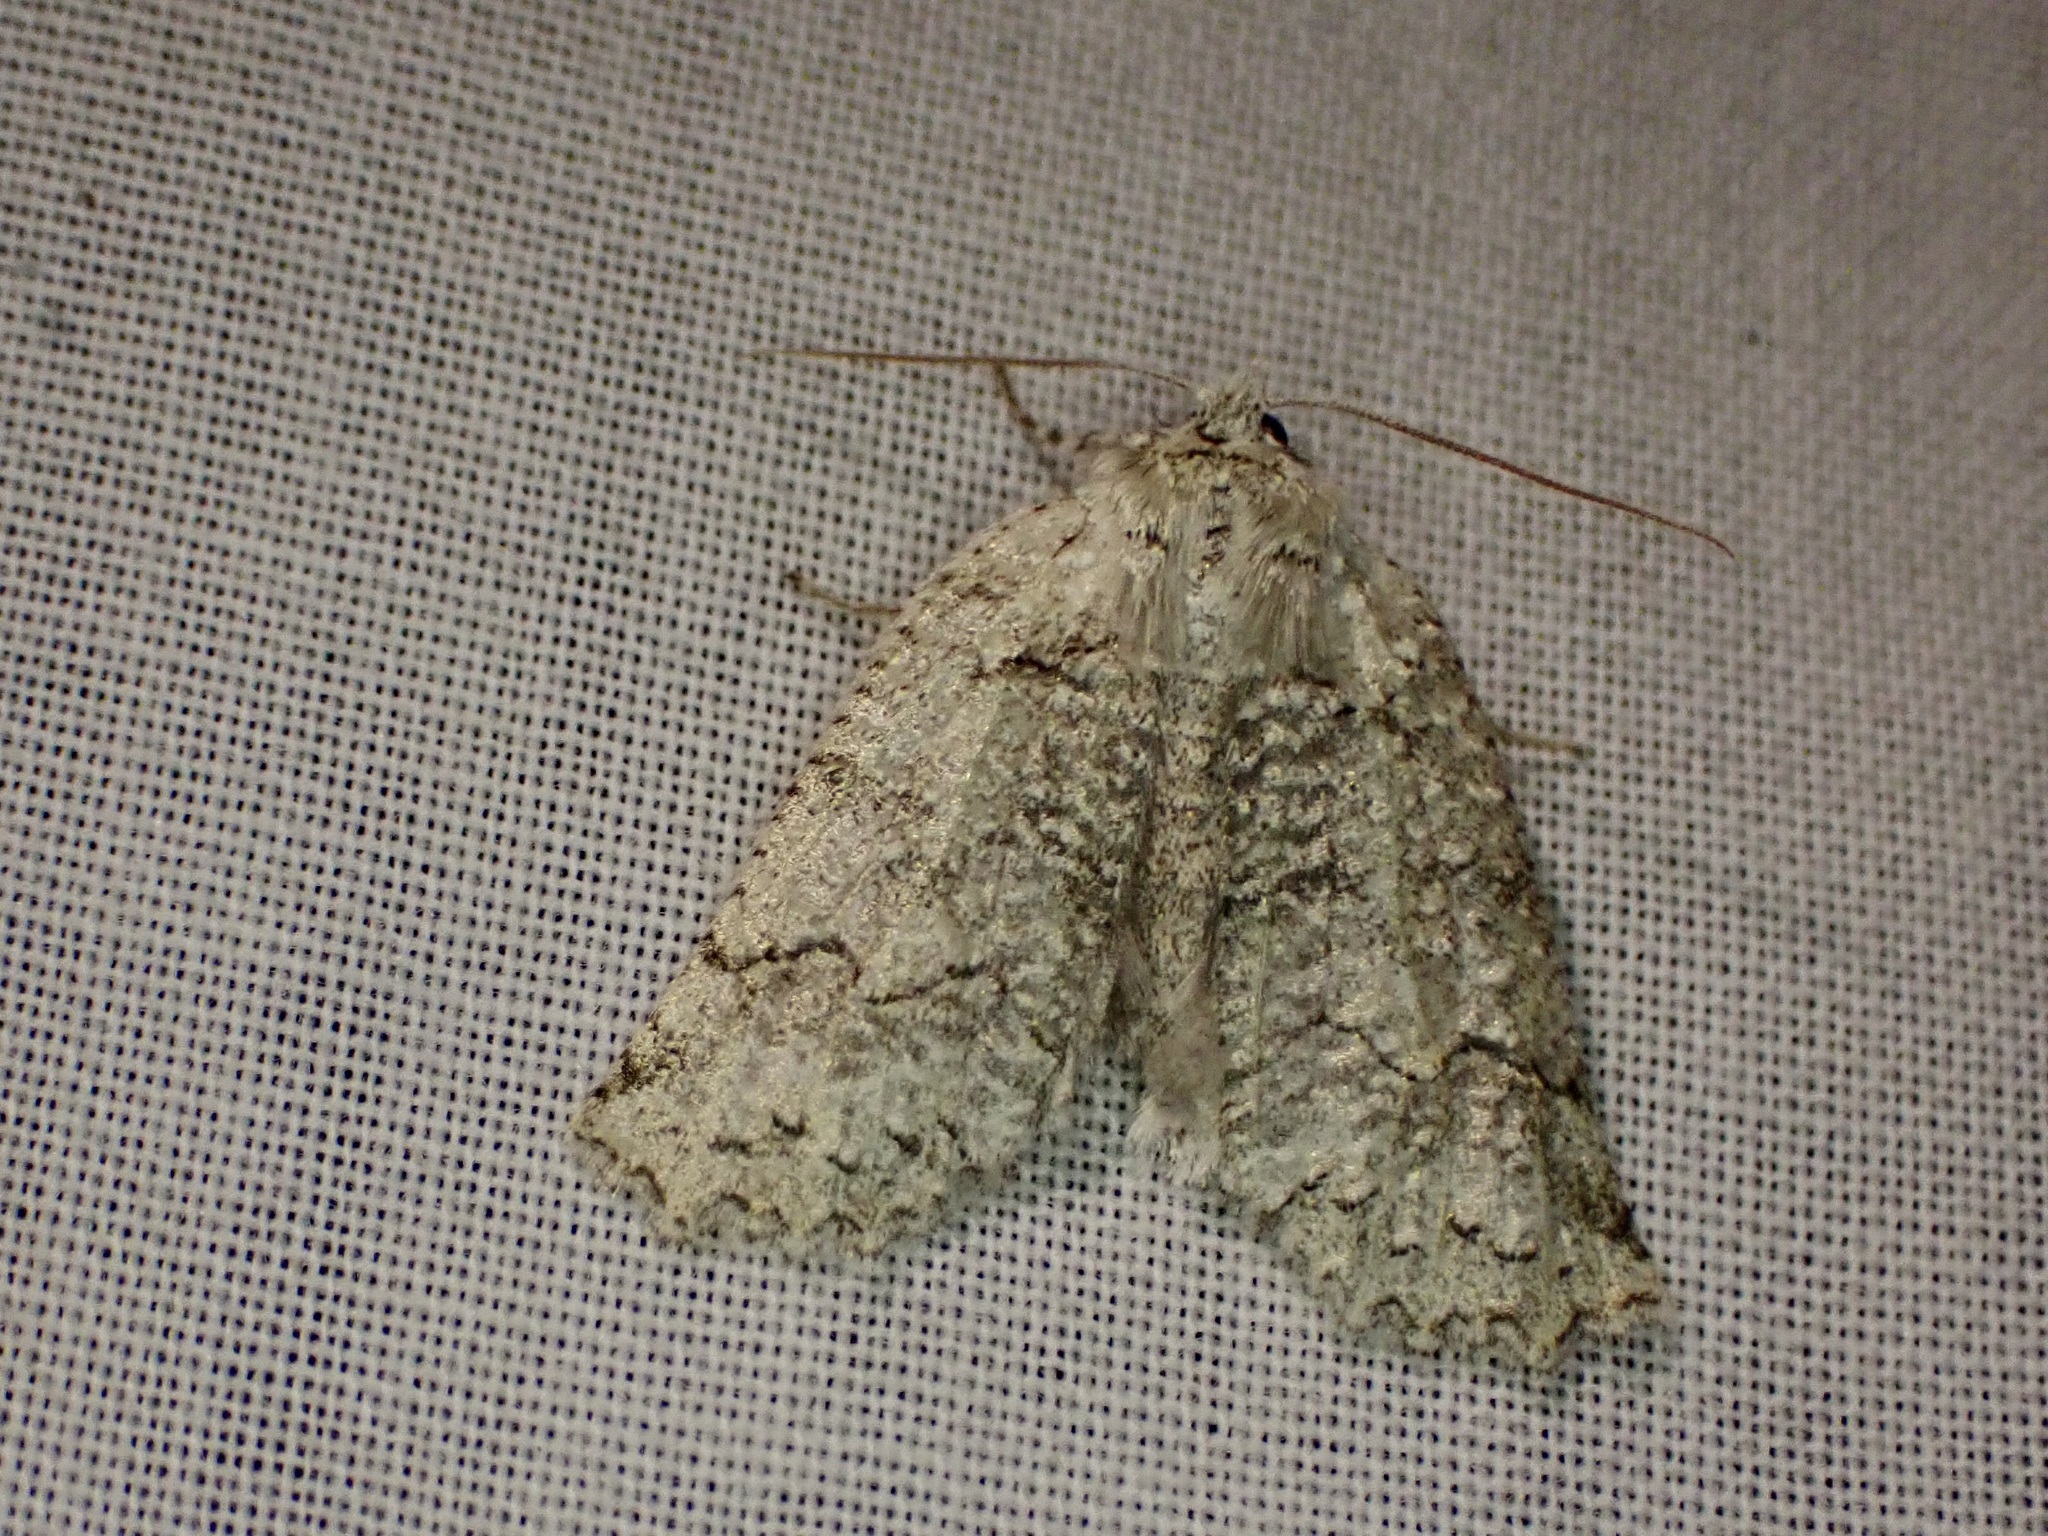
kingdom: Animalia
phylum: Arthropoda
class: Insecta
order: Lepidoptera
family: Geometridae
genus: Declana
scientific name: Declana floccosa
